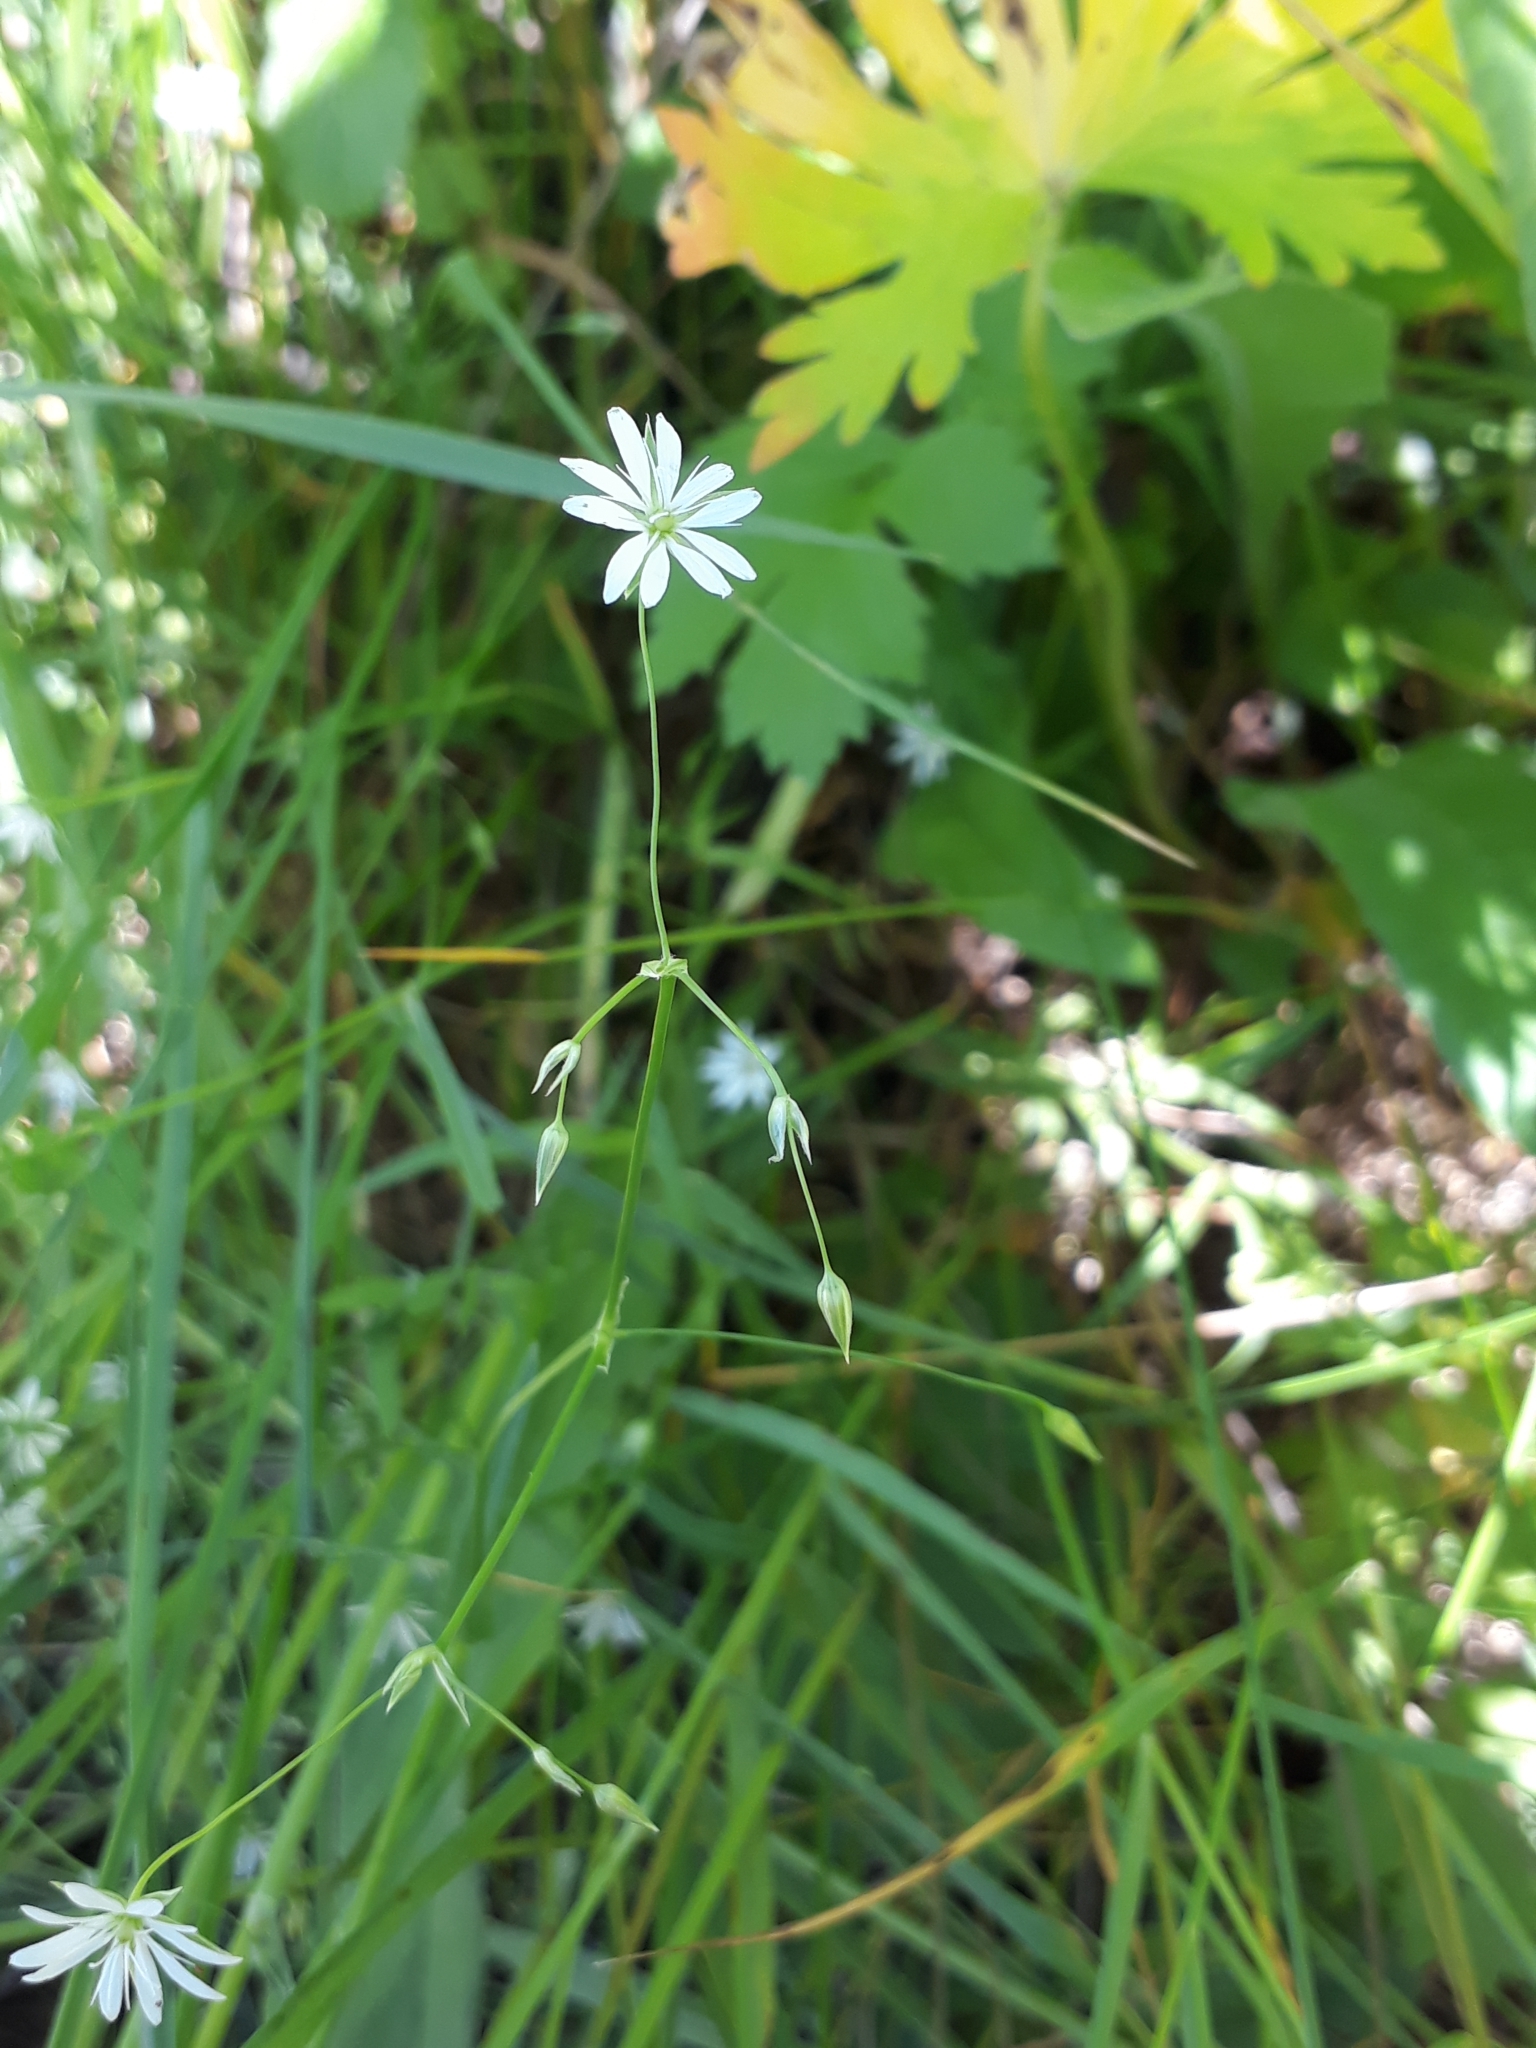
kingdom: Plantae
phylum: Tracheophyta
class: Magnoliopsida
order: Caryophyllales
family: Caryophyllaceae
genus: Stellaria
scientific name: Stellaria graminea
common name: Grass-like starwort
